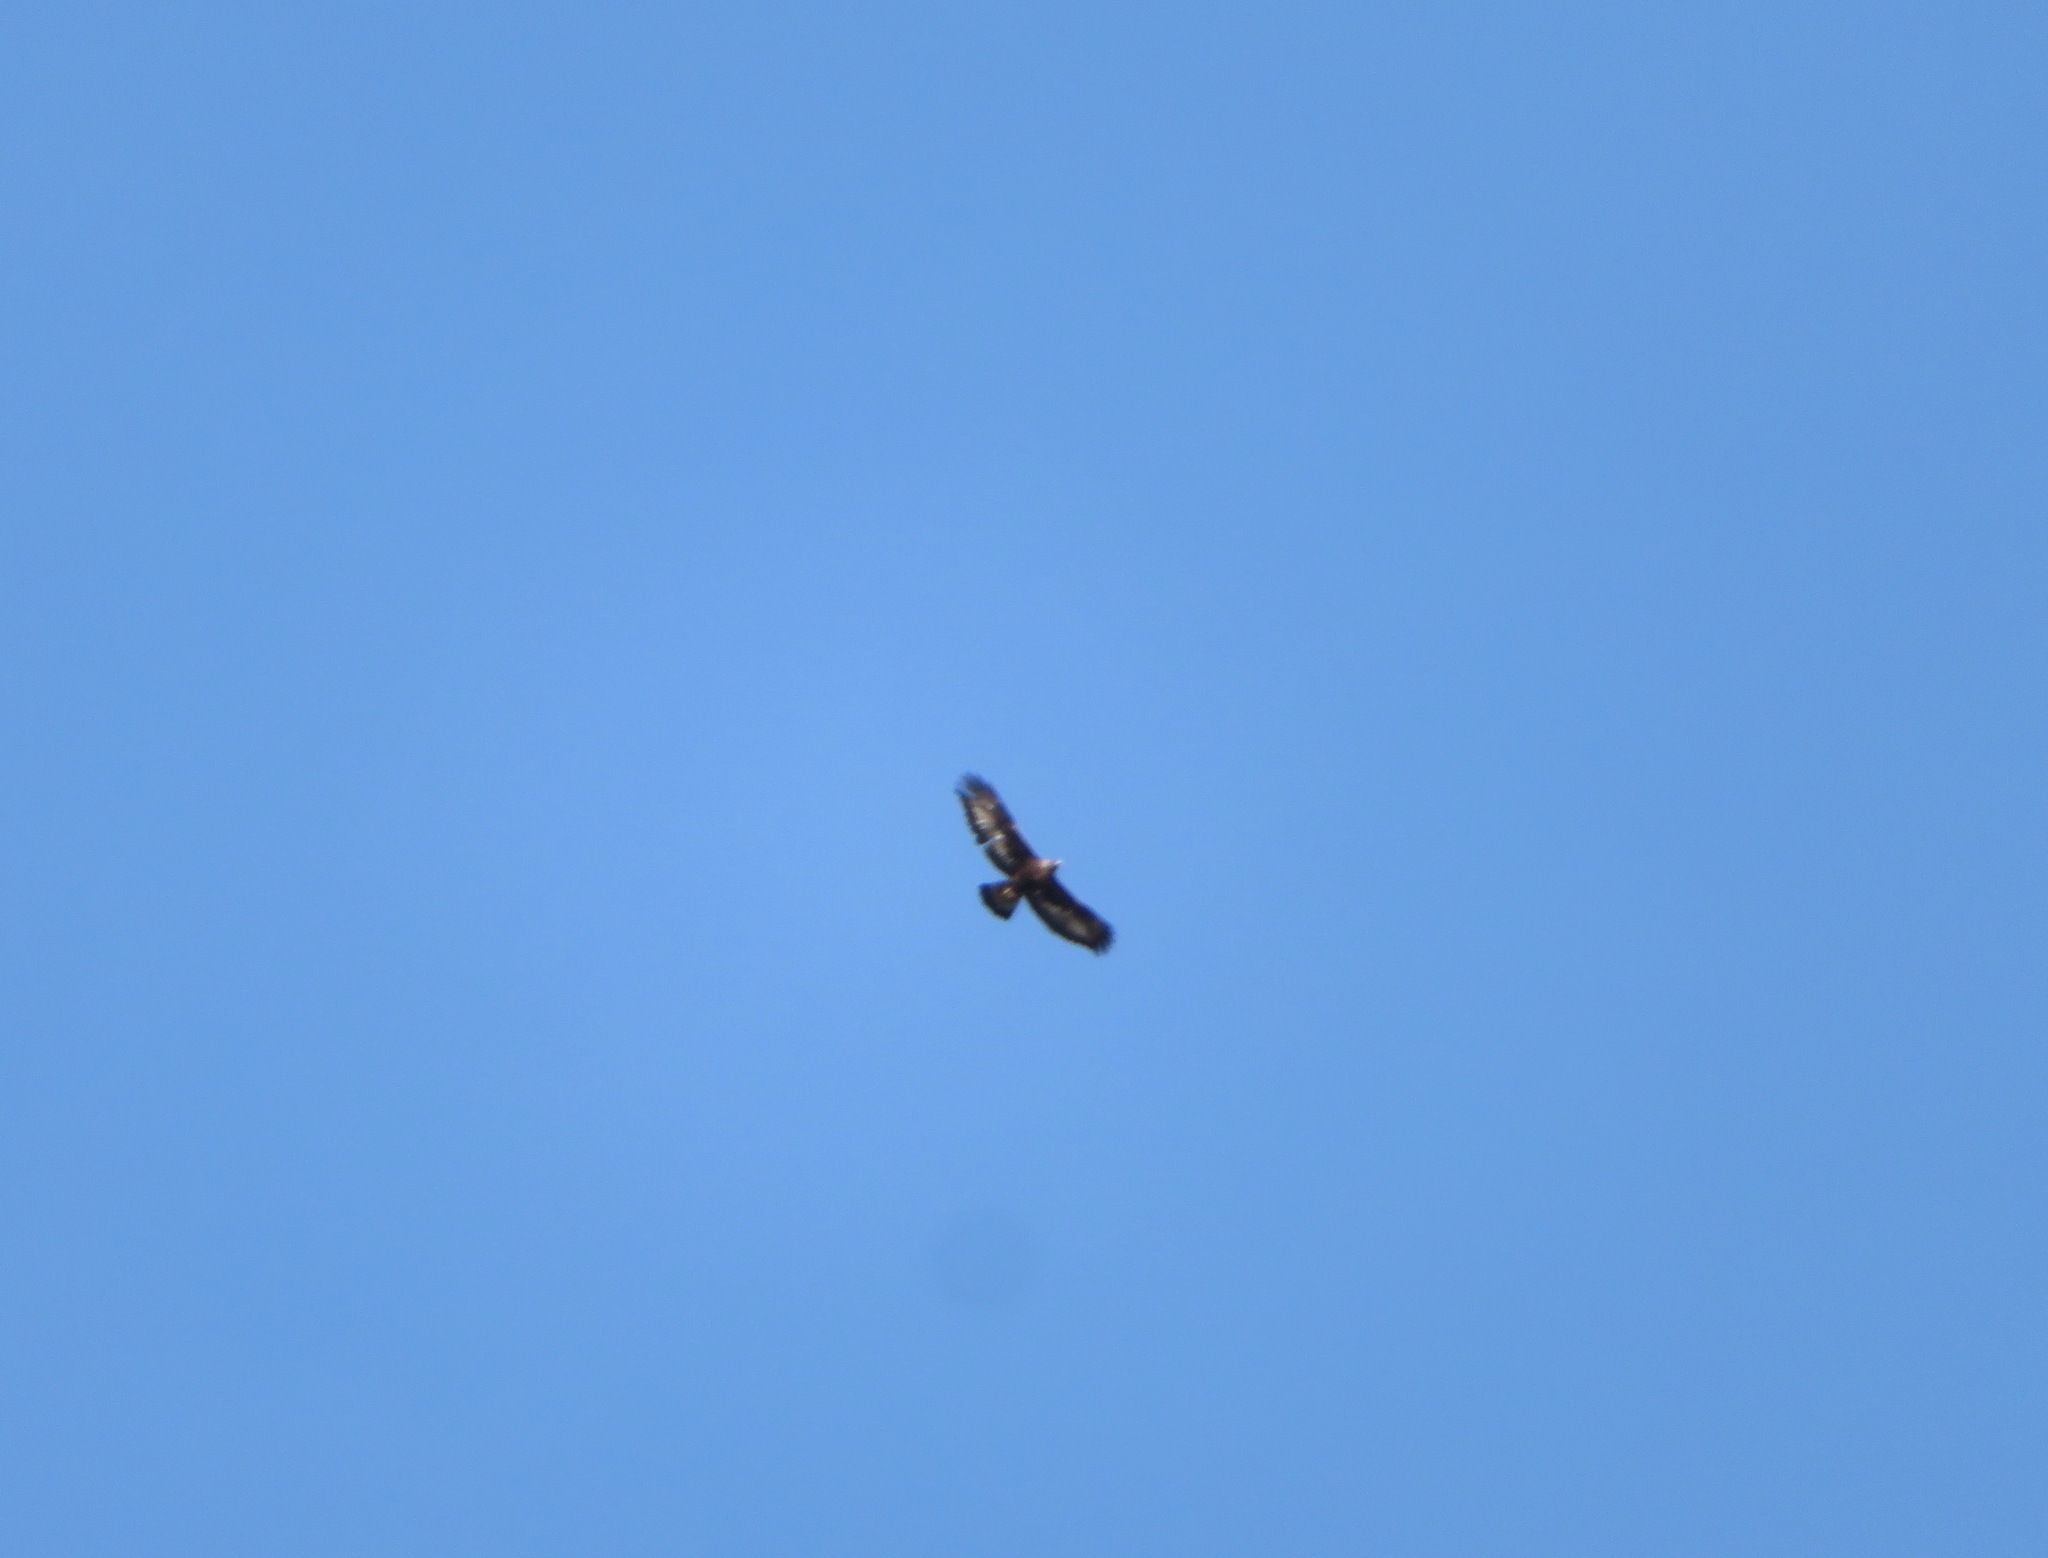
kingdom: Animalia
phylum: Chordata
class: Aves
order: Accipitriformes
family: Accipitridae
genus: Aquila
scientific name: Aquila chrysaetos
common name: Golden eagle
